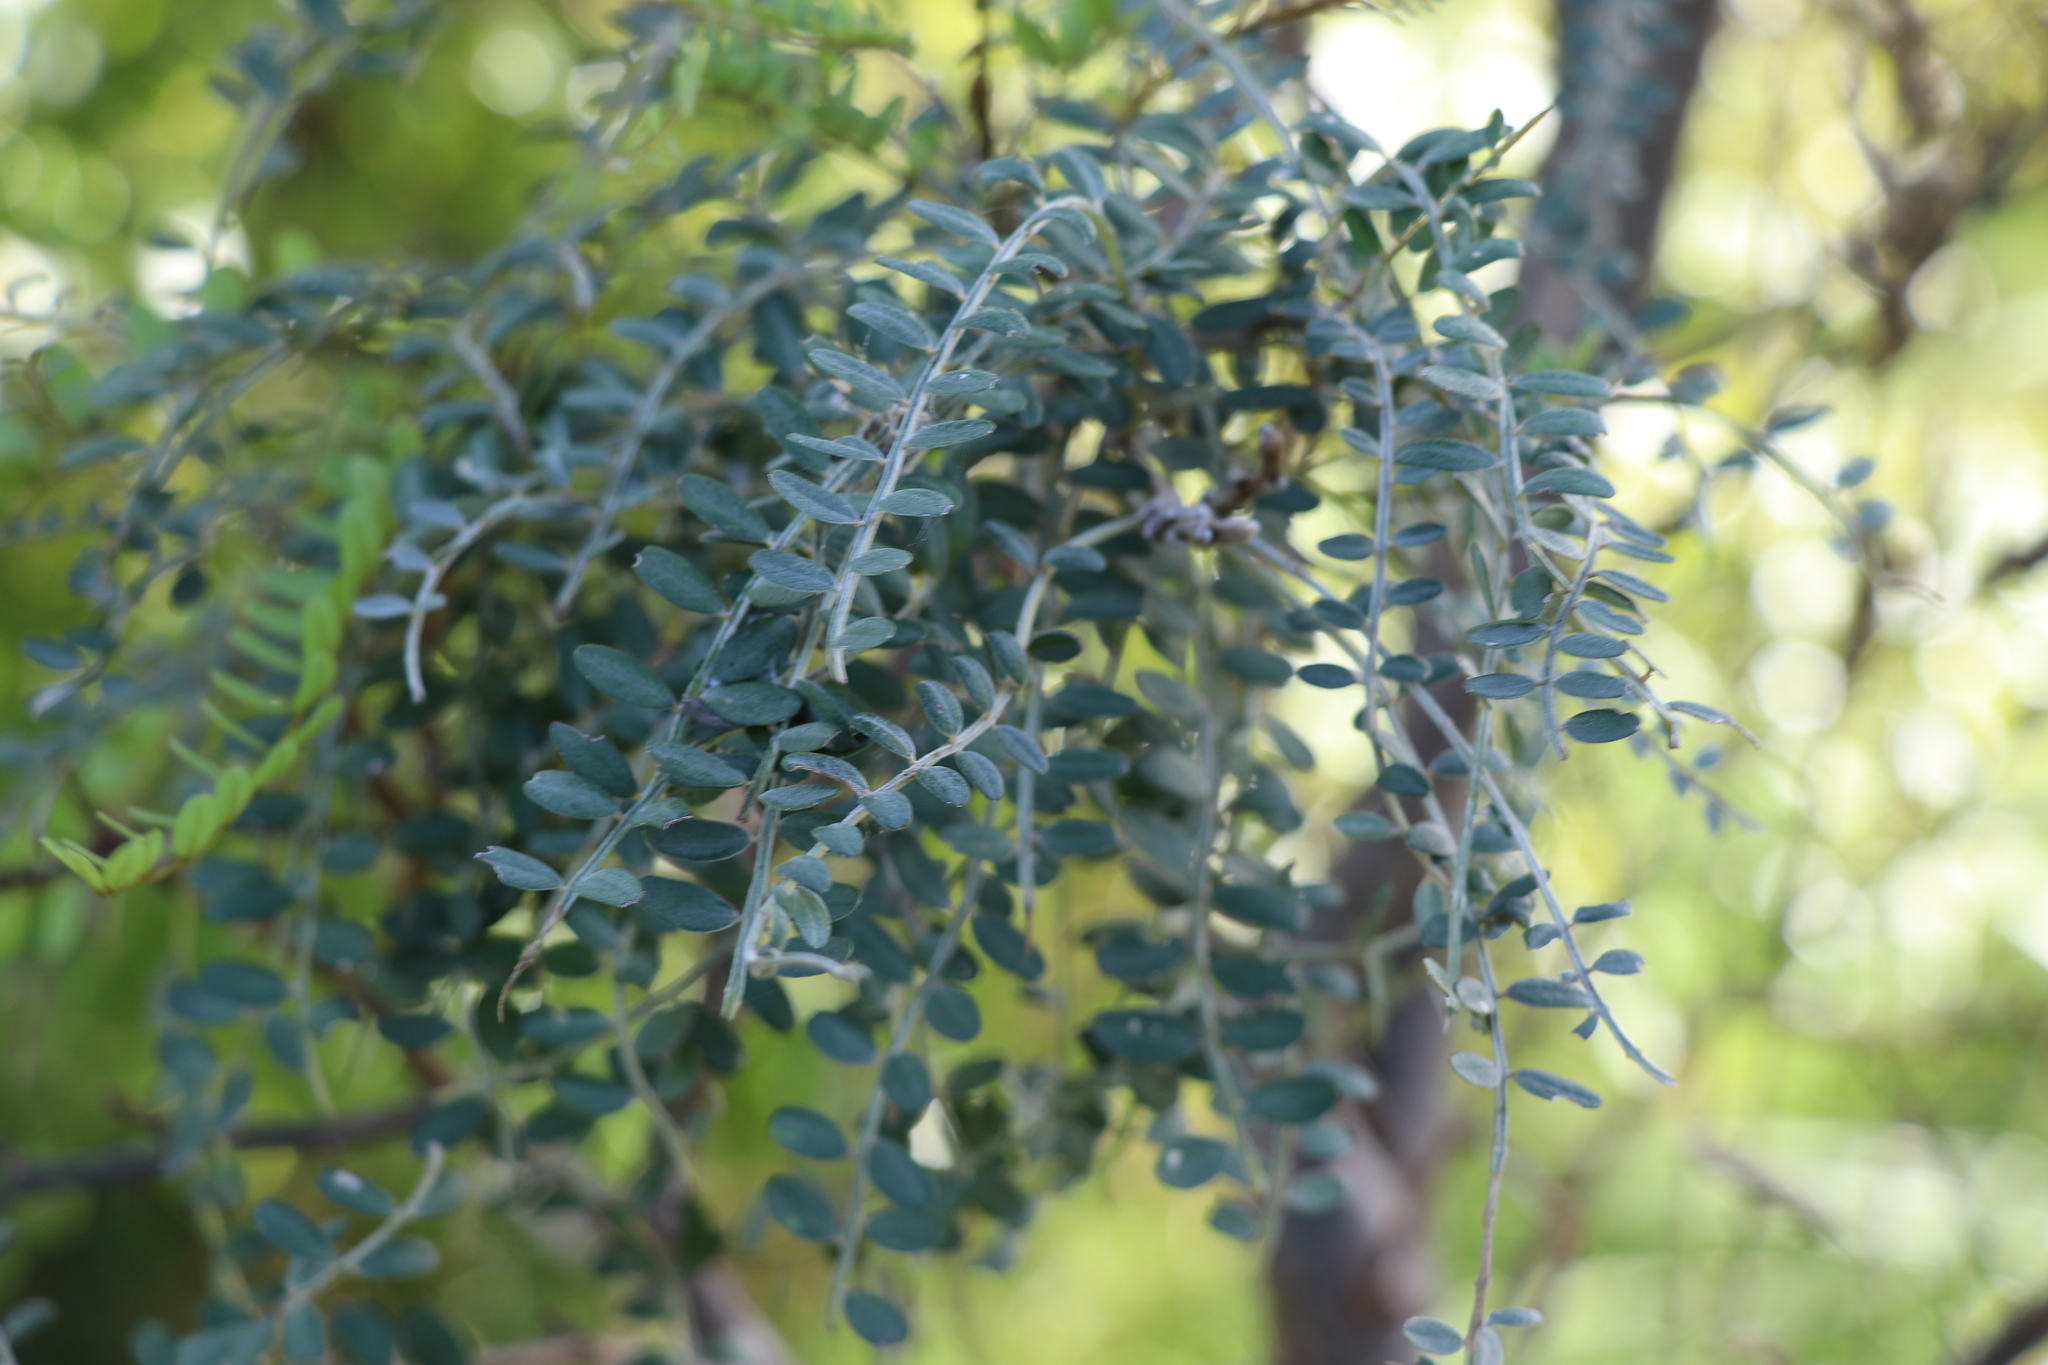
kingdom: Plantae
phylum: Tracheophyta
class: Magnoliopsida
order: Fabales
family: Fabaceae
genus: Sophora
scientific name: Sophora microphylla
